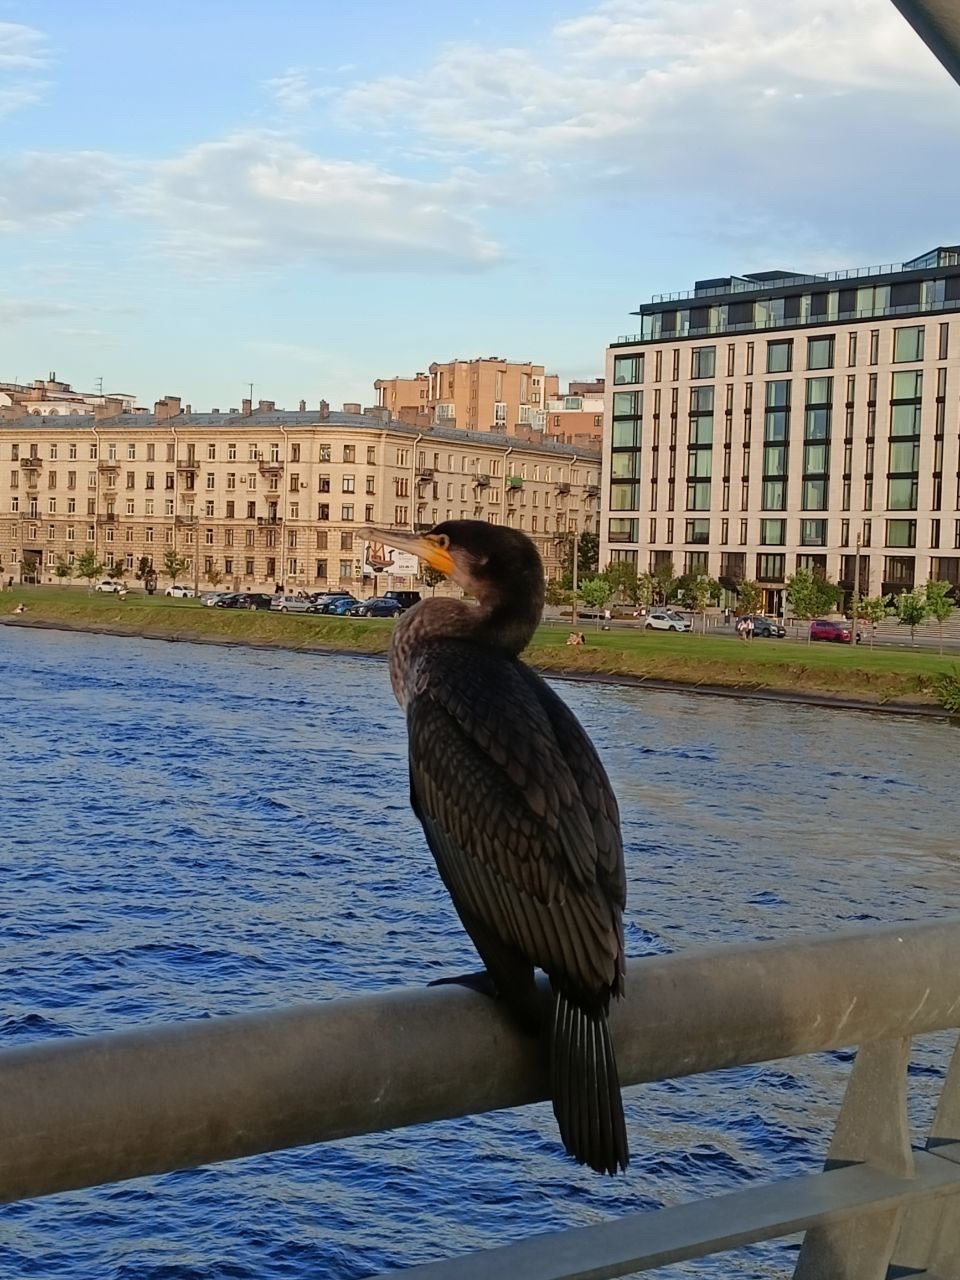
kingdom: Animalia
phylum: Chordata
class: Aves
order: Suliformes
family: Phalacrocoracidae
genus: Phalacrocorax
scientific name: Phalacrocorax carbo
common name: Great cormorant
